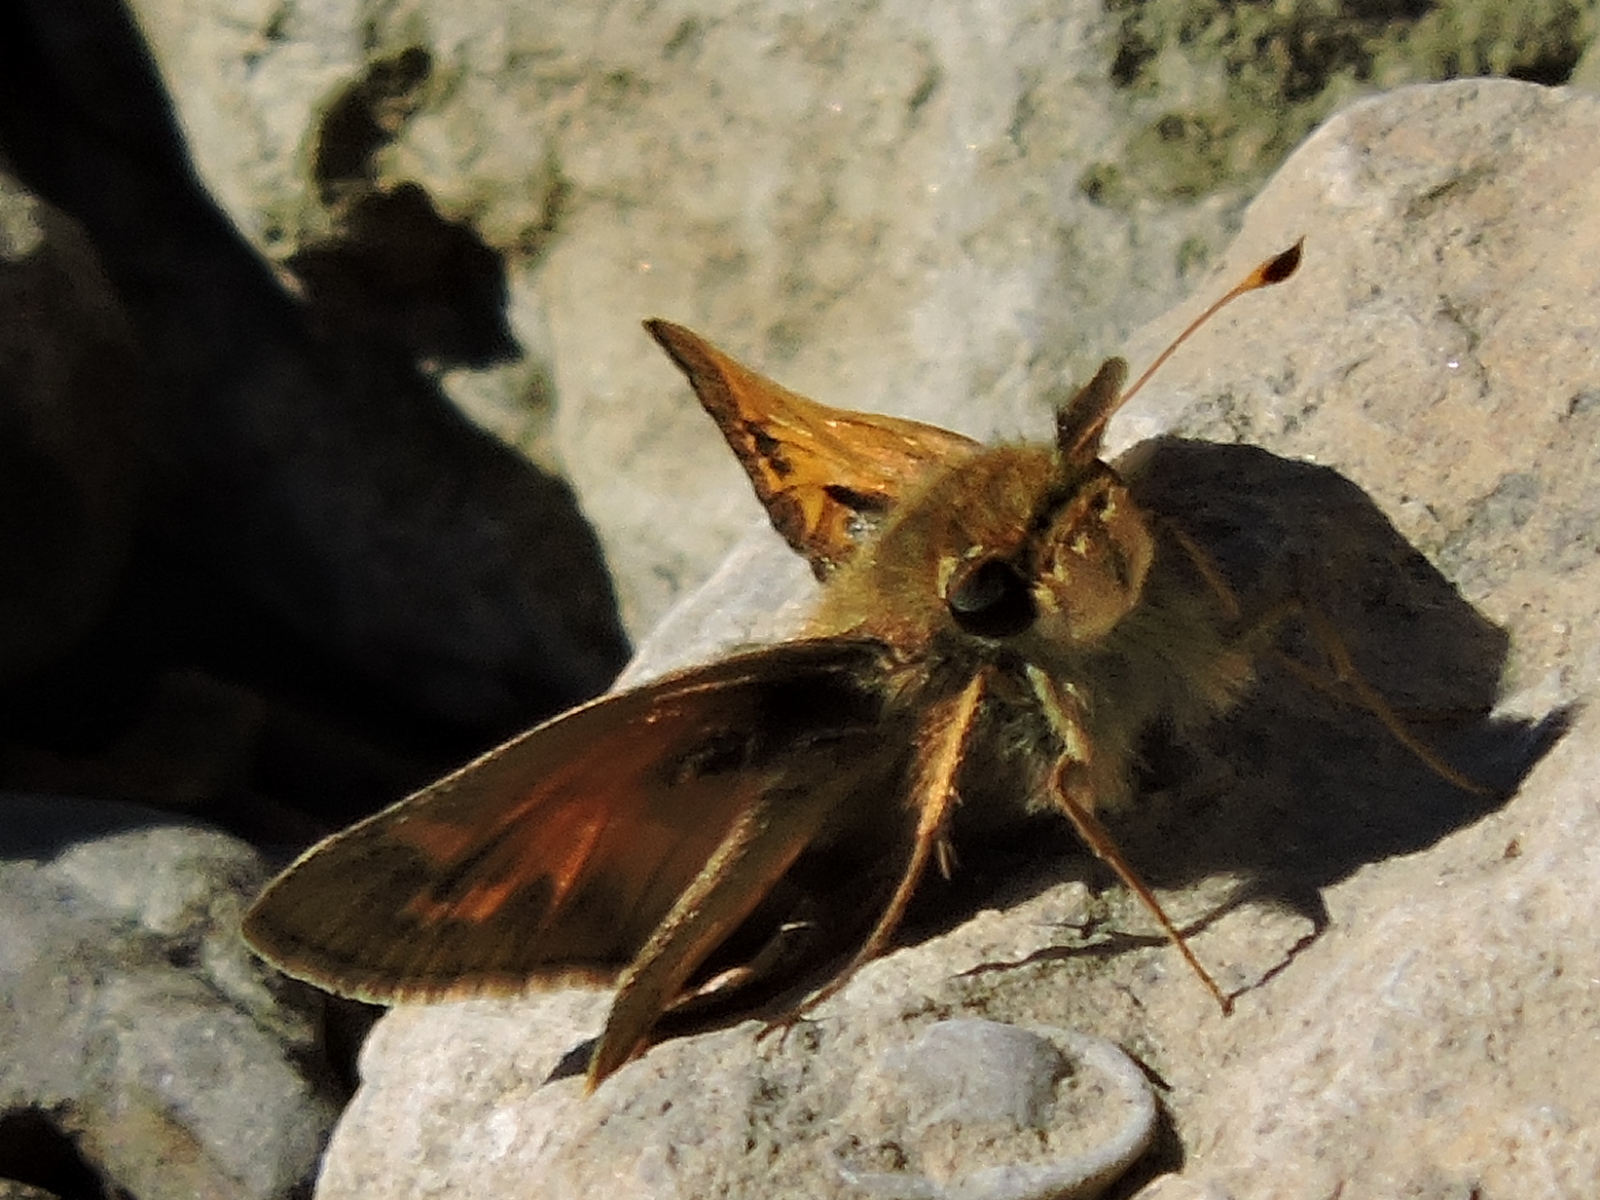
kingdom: Animalia
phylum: Arthropoda
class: Insecta
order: Lepidoptera
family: Hesperiidae
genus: Hylephila
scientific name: Hylephila phyleus
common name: Fiery skipper
